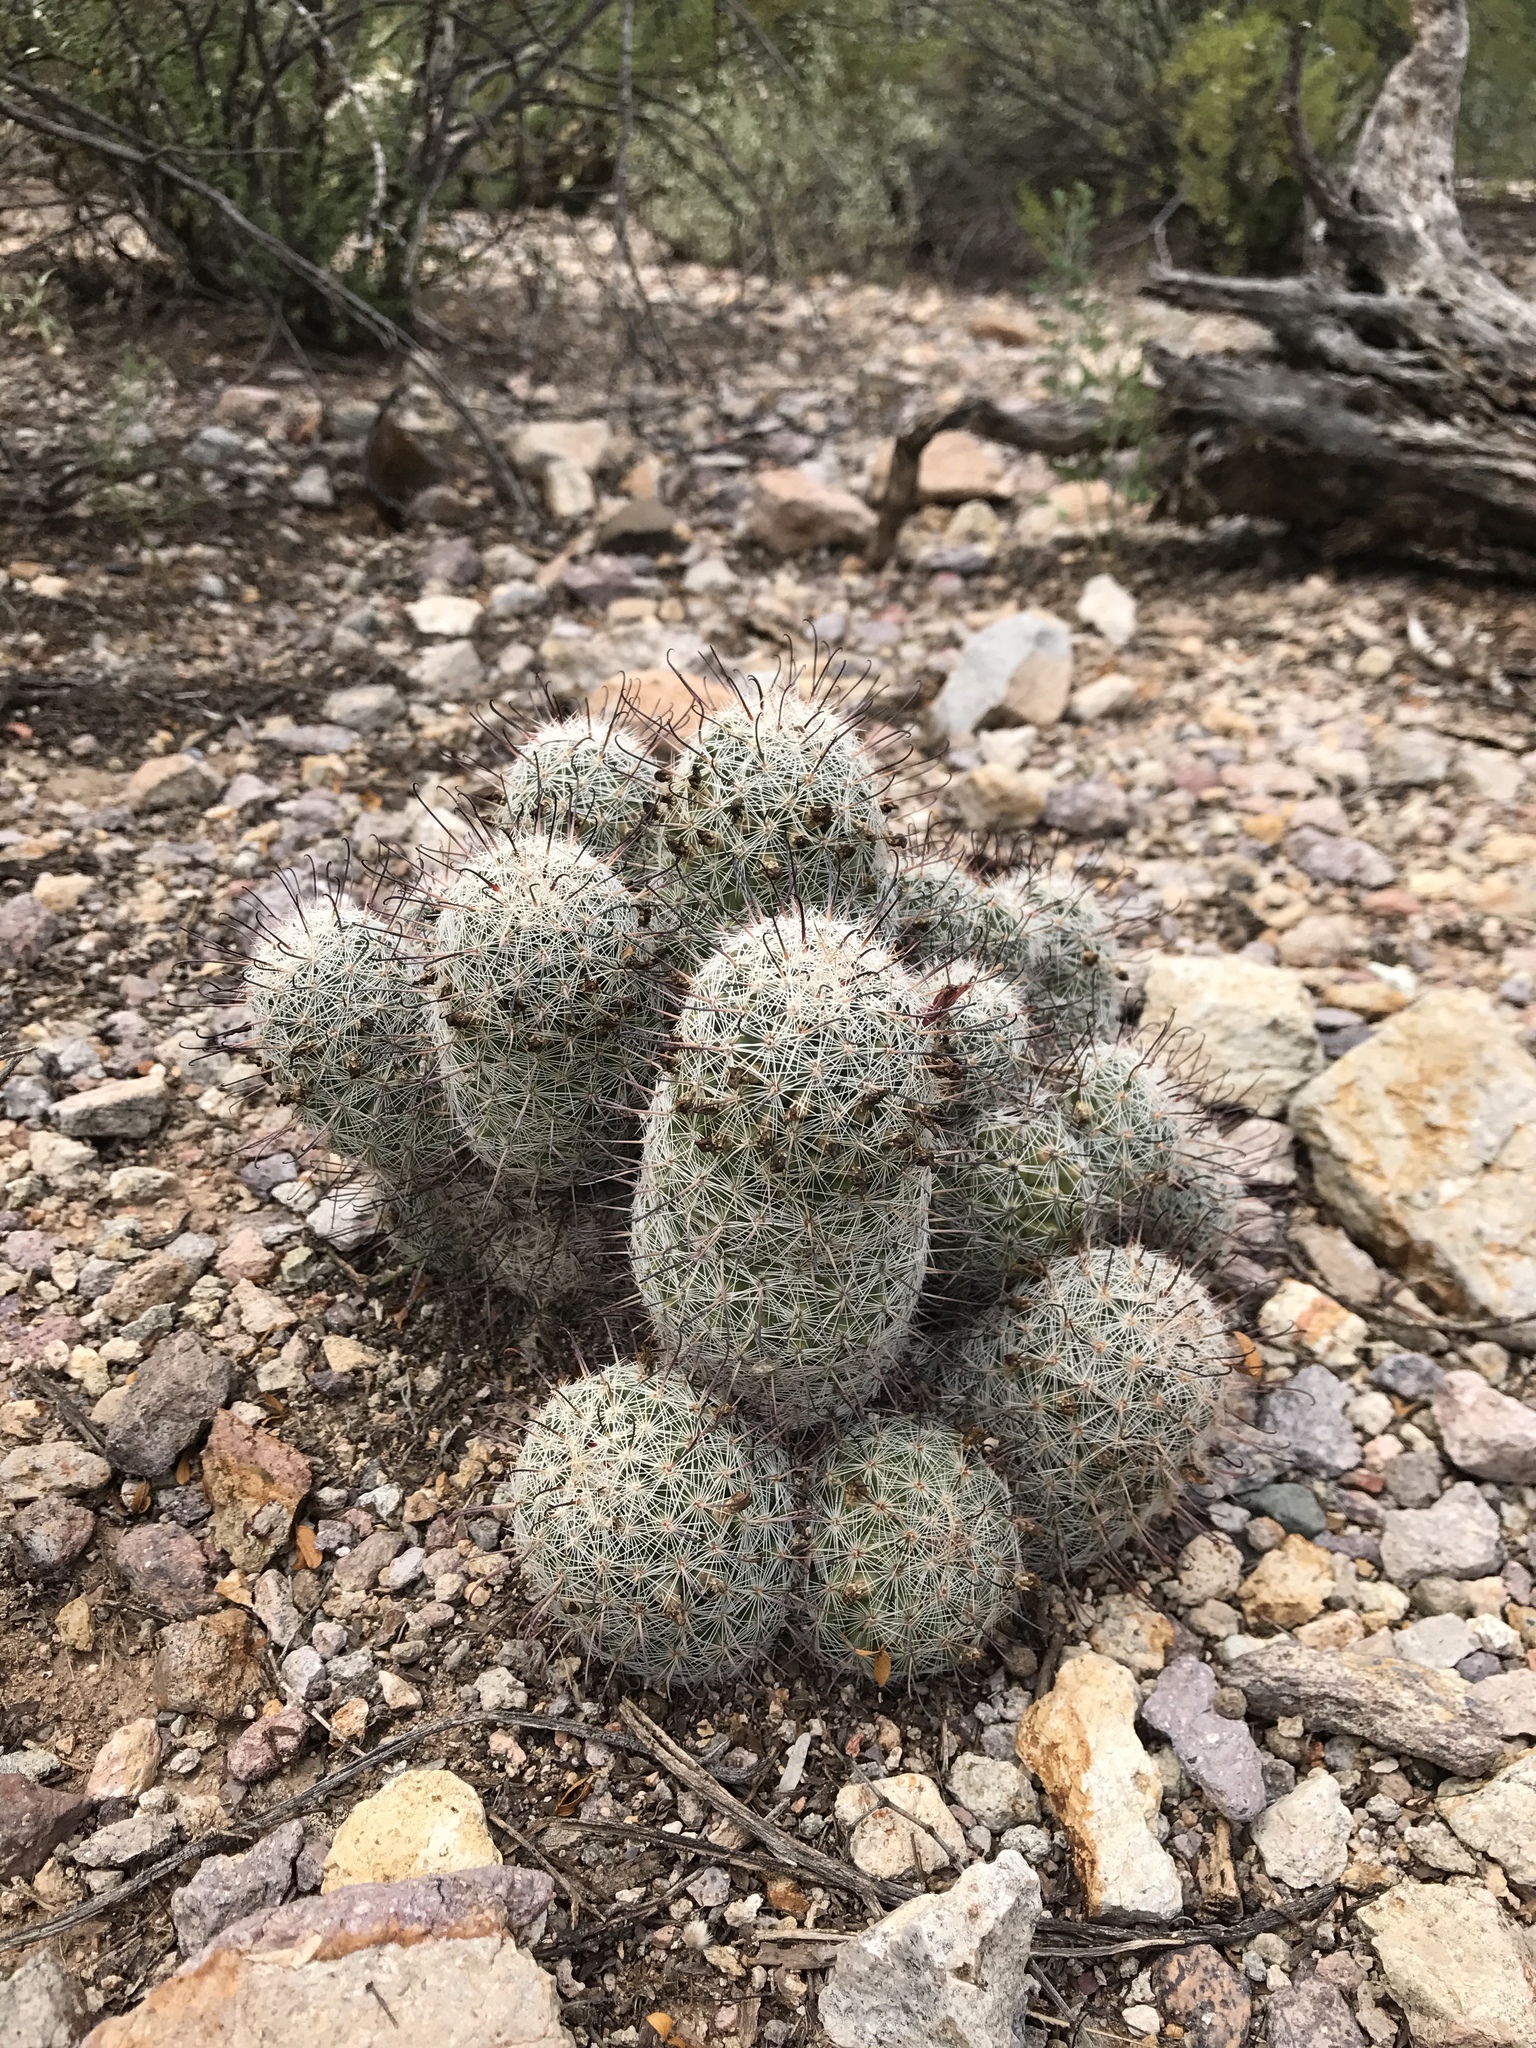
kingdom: Plantae
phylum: Tracheophyta
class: Magnoliopsida
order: Caryophyllales
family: Cactaceae
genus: Cochemiea
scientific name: Cochemiea grahamii
